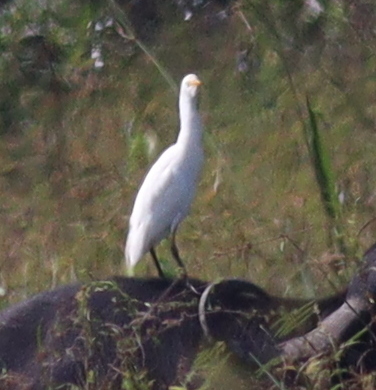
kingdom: Animalia
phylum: Chordata
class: Aves
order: Pelecaniformes
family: Ardeidae
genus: Bubulcus
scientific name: Bubulcus ibis
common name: Cattle egret
